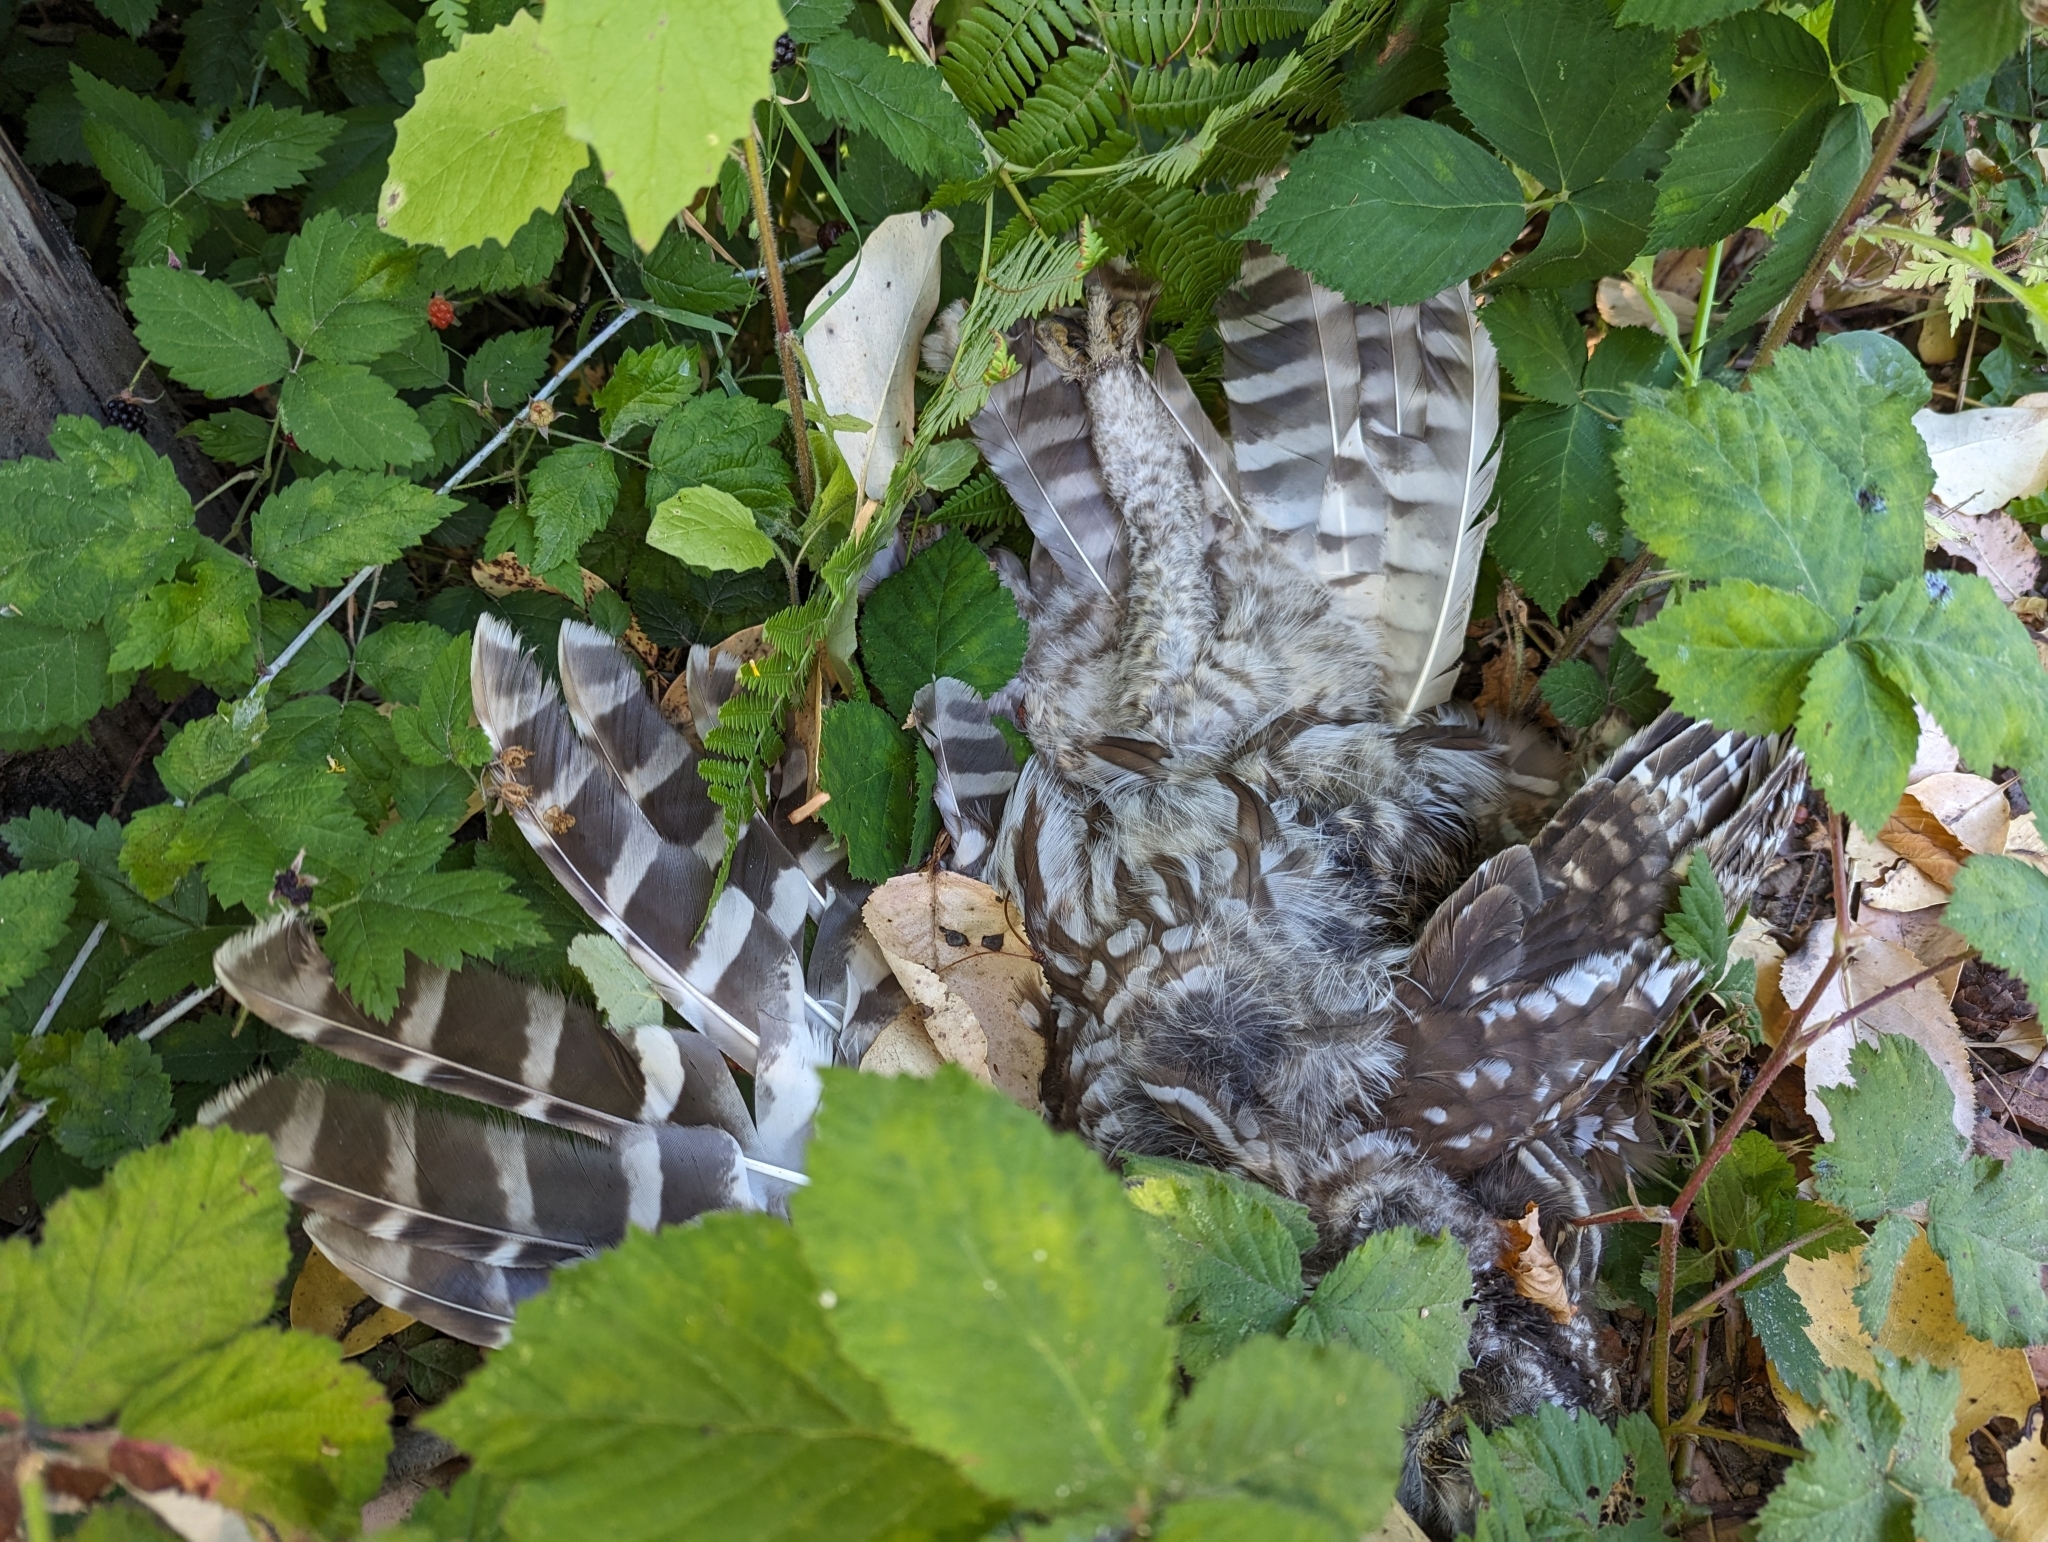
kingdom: Animalia
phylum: Chordata
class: Aves
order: Strigiformes
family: Strigidae
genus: Strix
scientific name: Strix varia
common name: Barred owl
